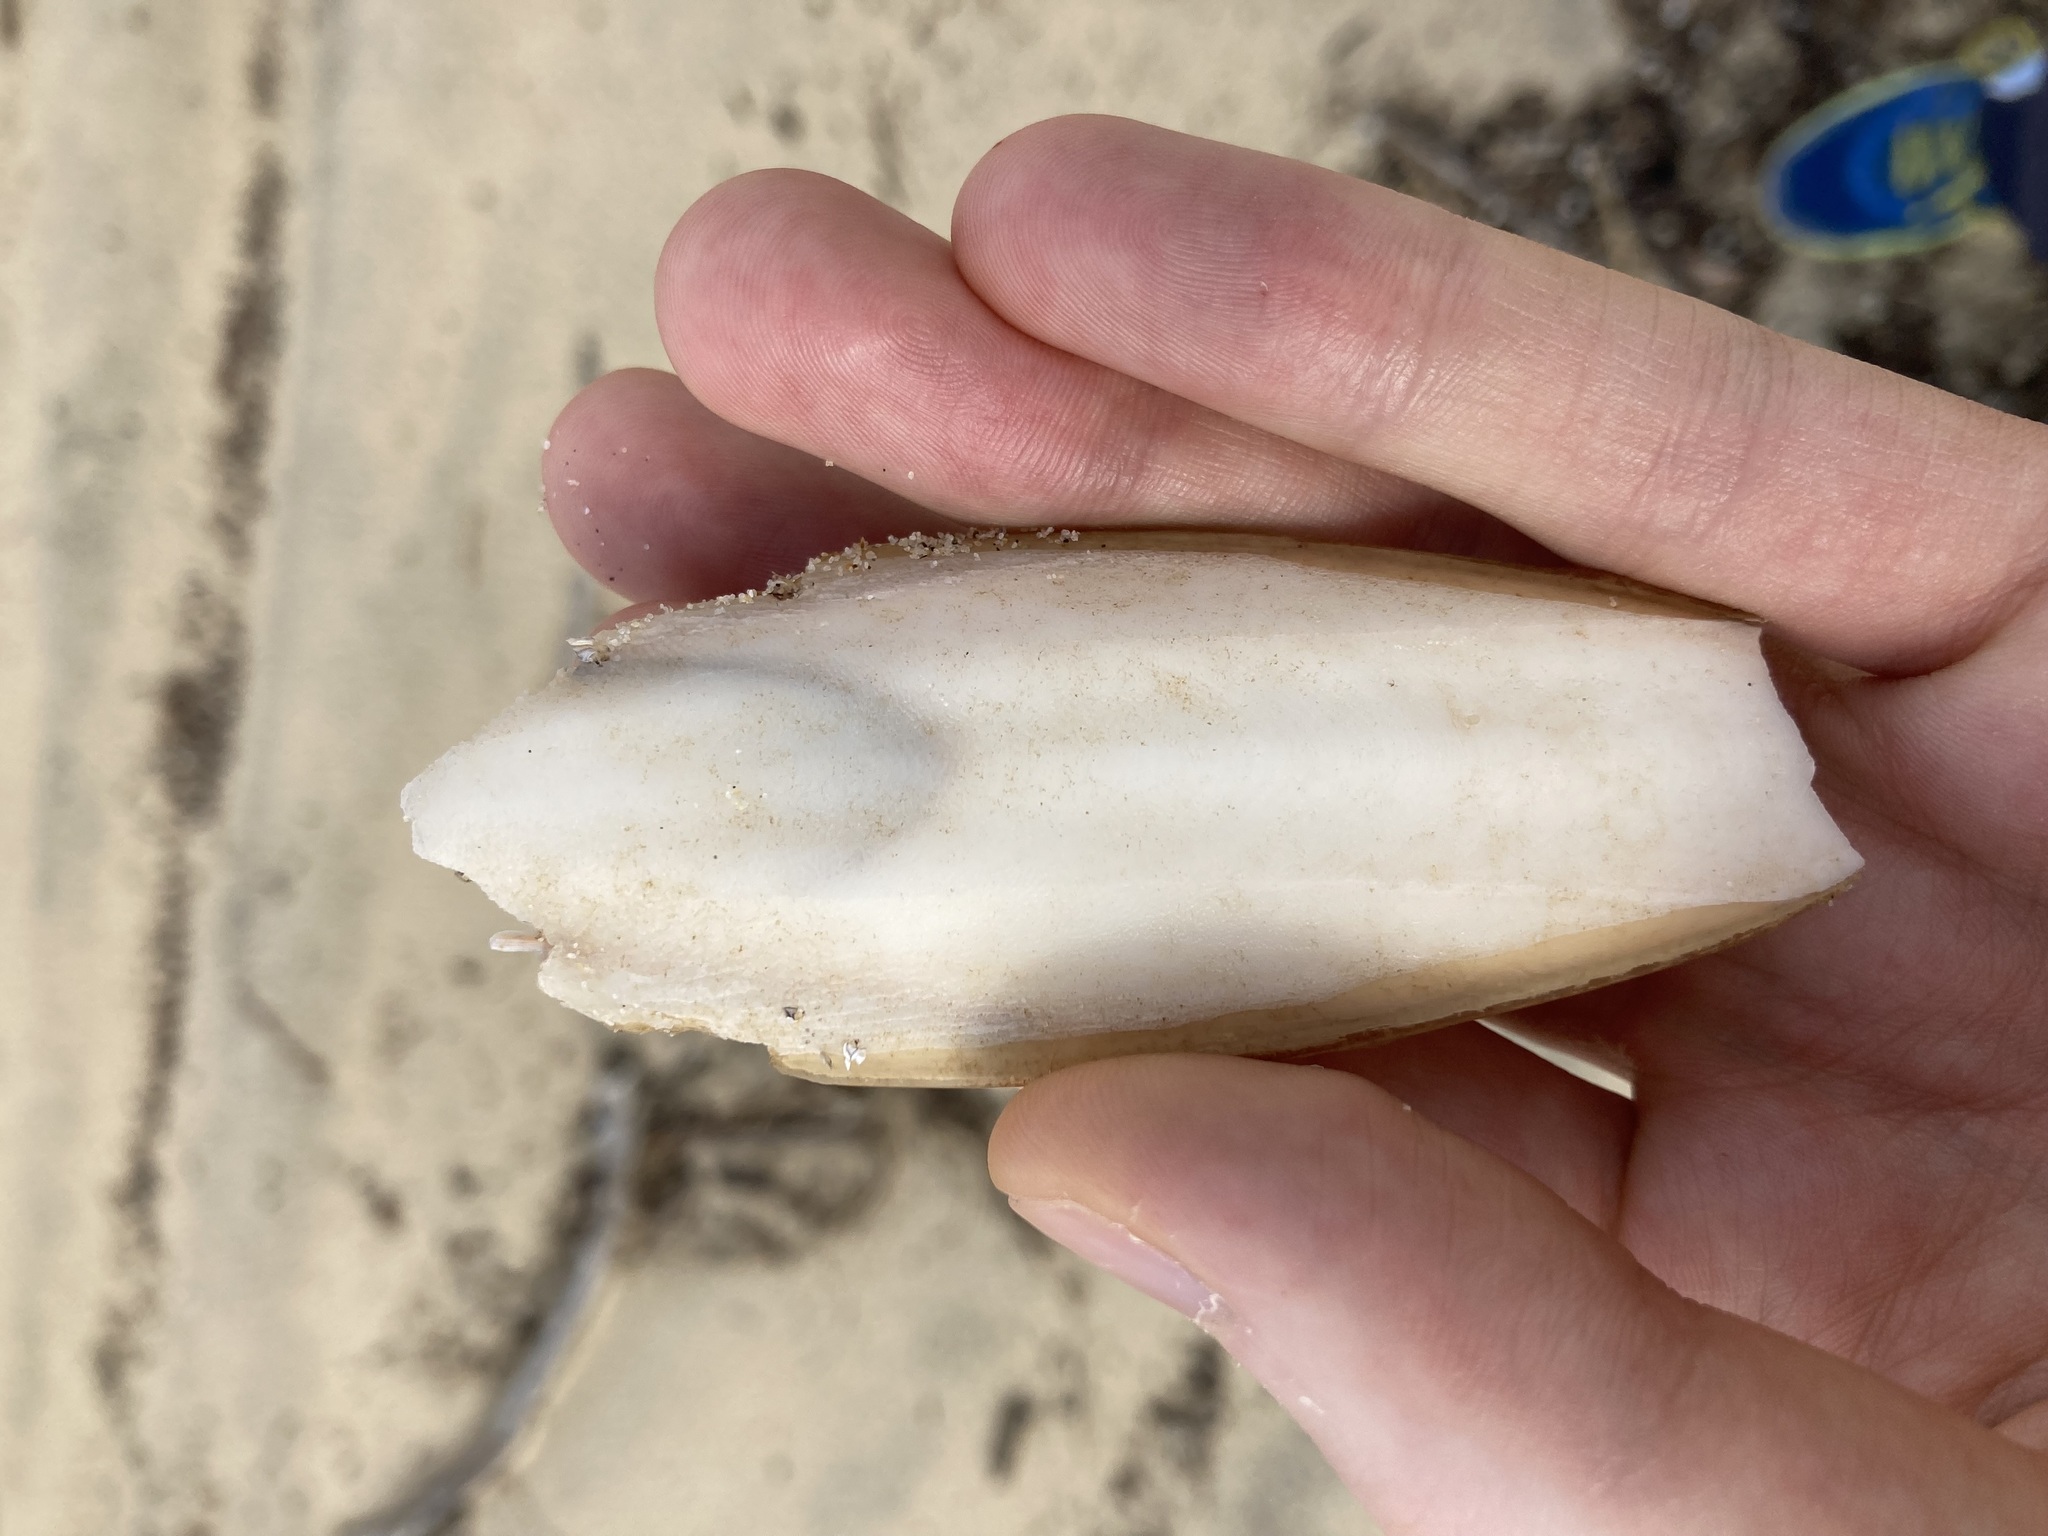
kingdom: Animalia
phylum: Mollusca
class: Cephalopoda
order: Sepiida
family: Sepiidae
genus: Ascarosepion
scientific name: Ascarosepion rozella
